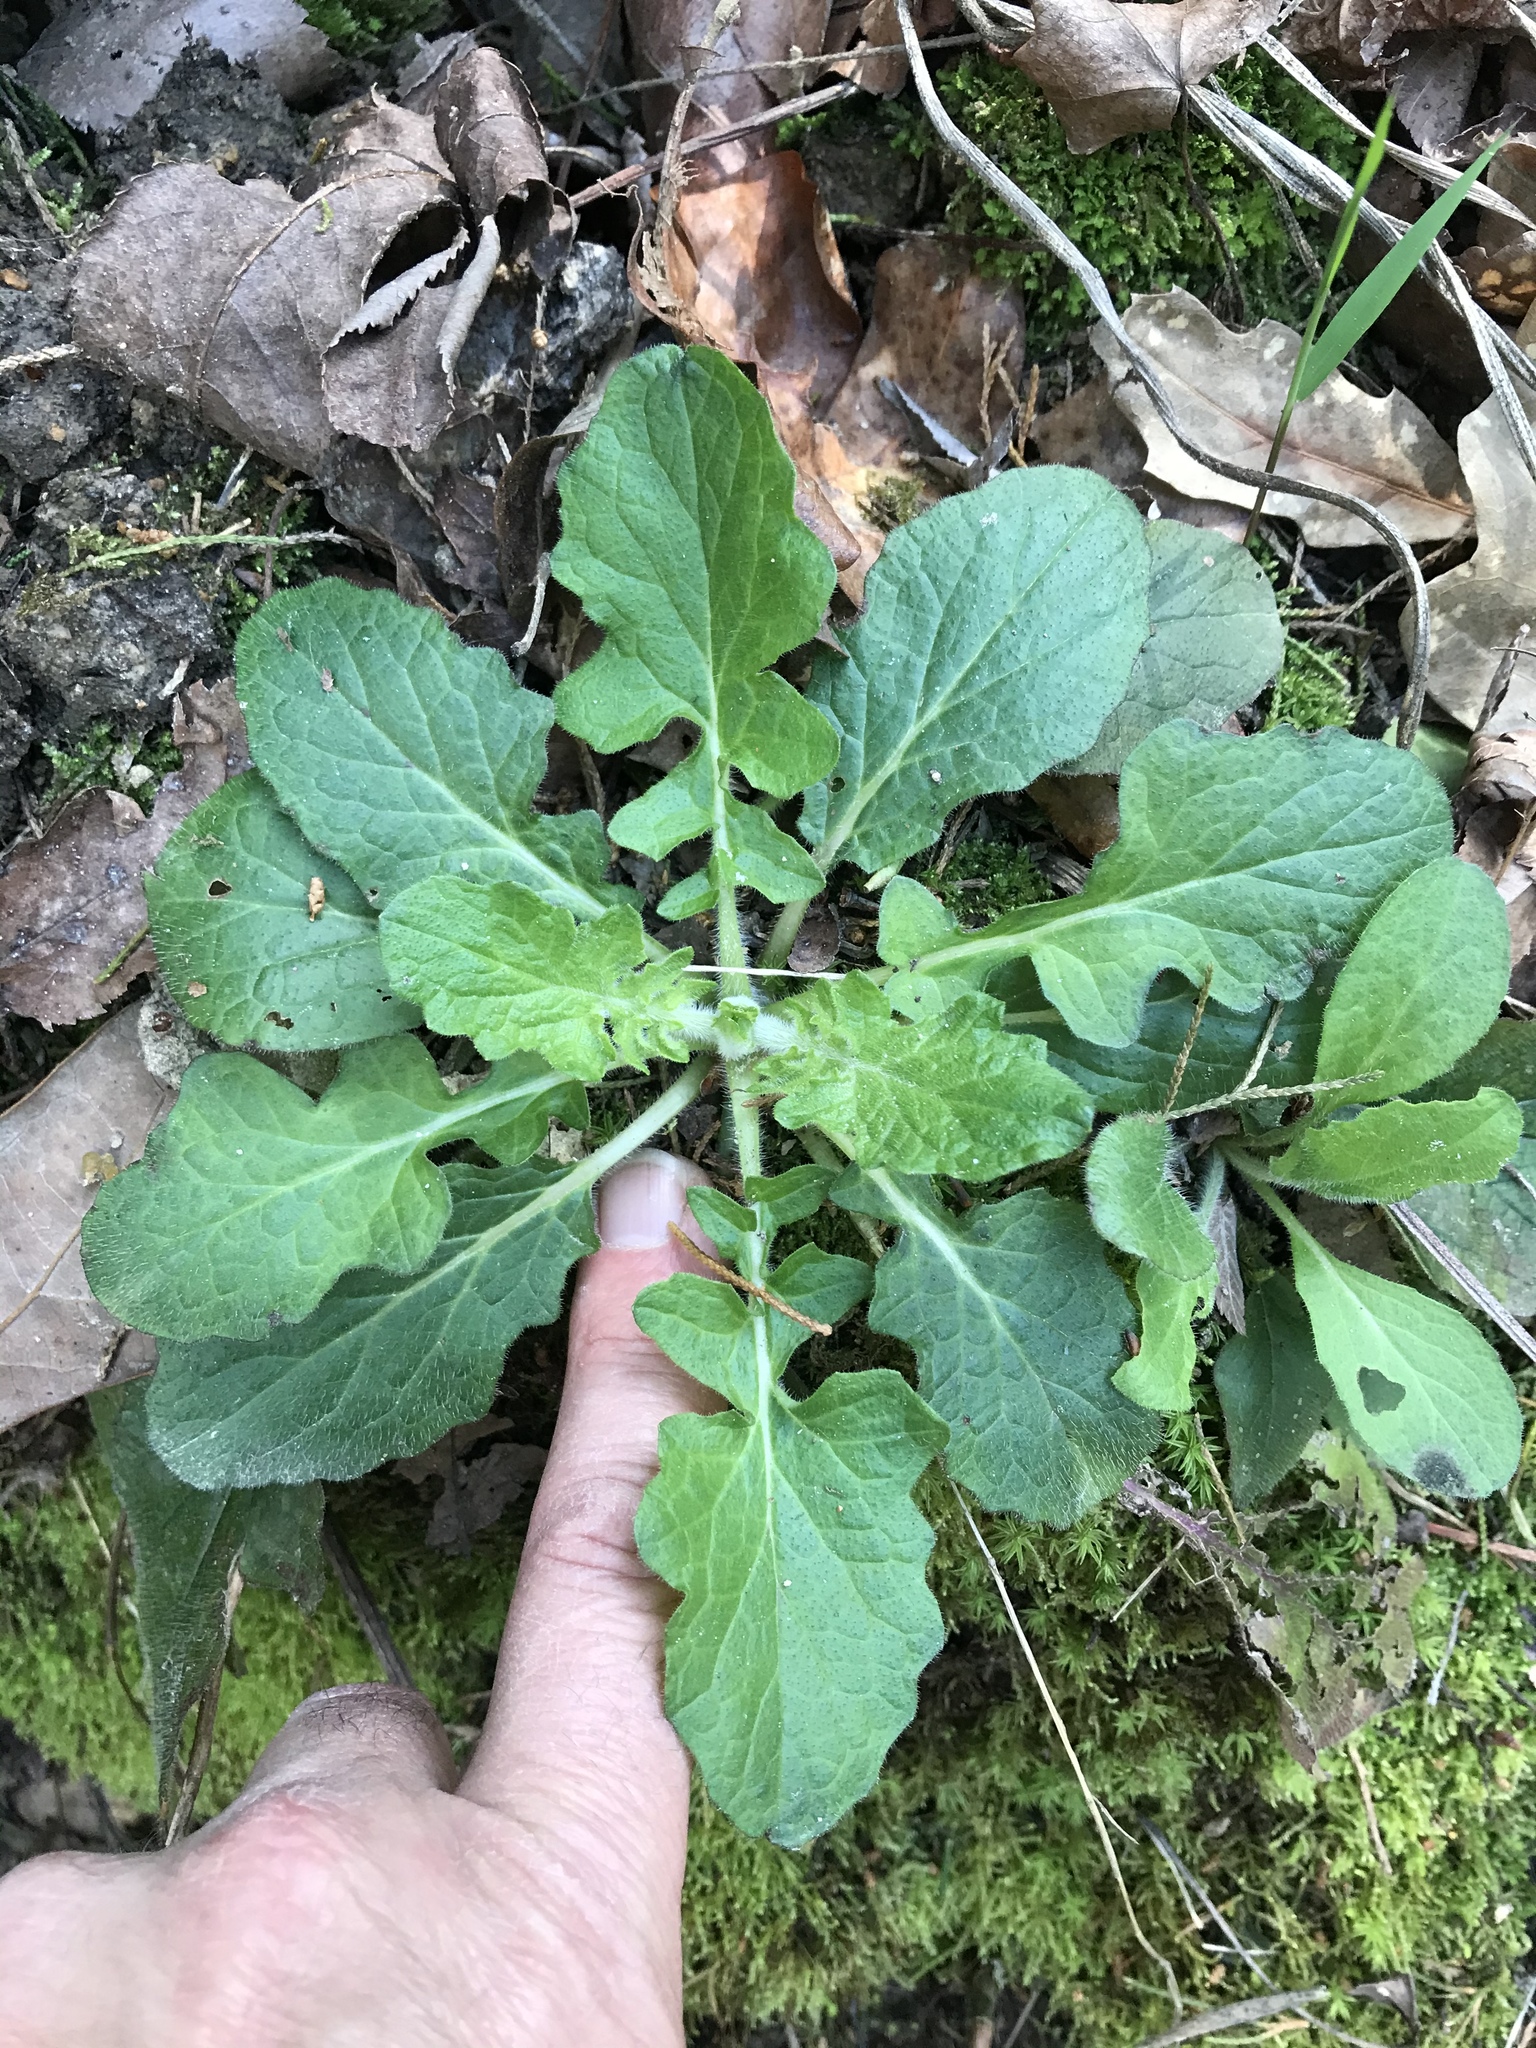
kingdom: Plantae
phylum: Tracheophyta
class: Magnoliopsida
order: Lamiales
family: Lamiaceae
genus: Salvia
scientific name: Salvia lyrata
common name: Cancerweed
